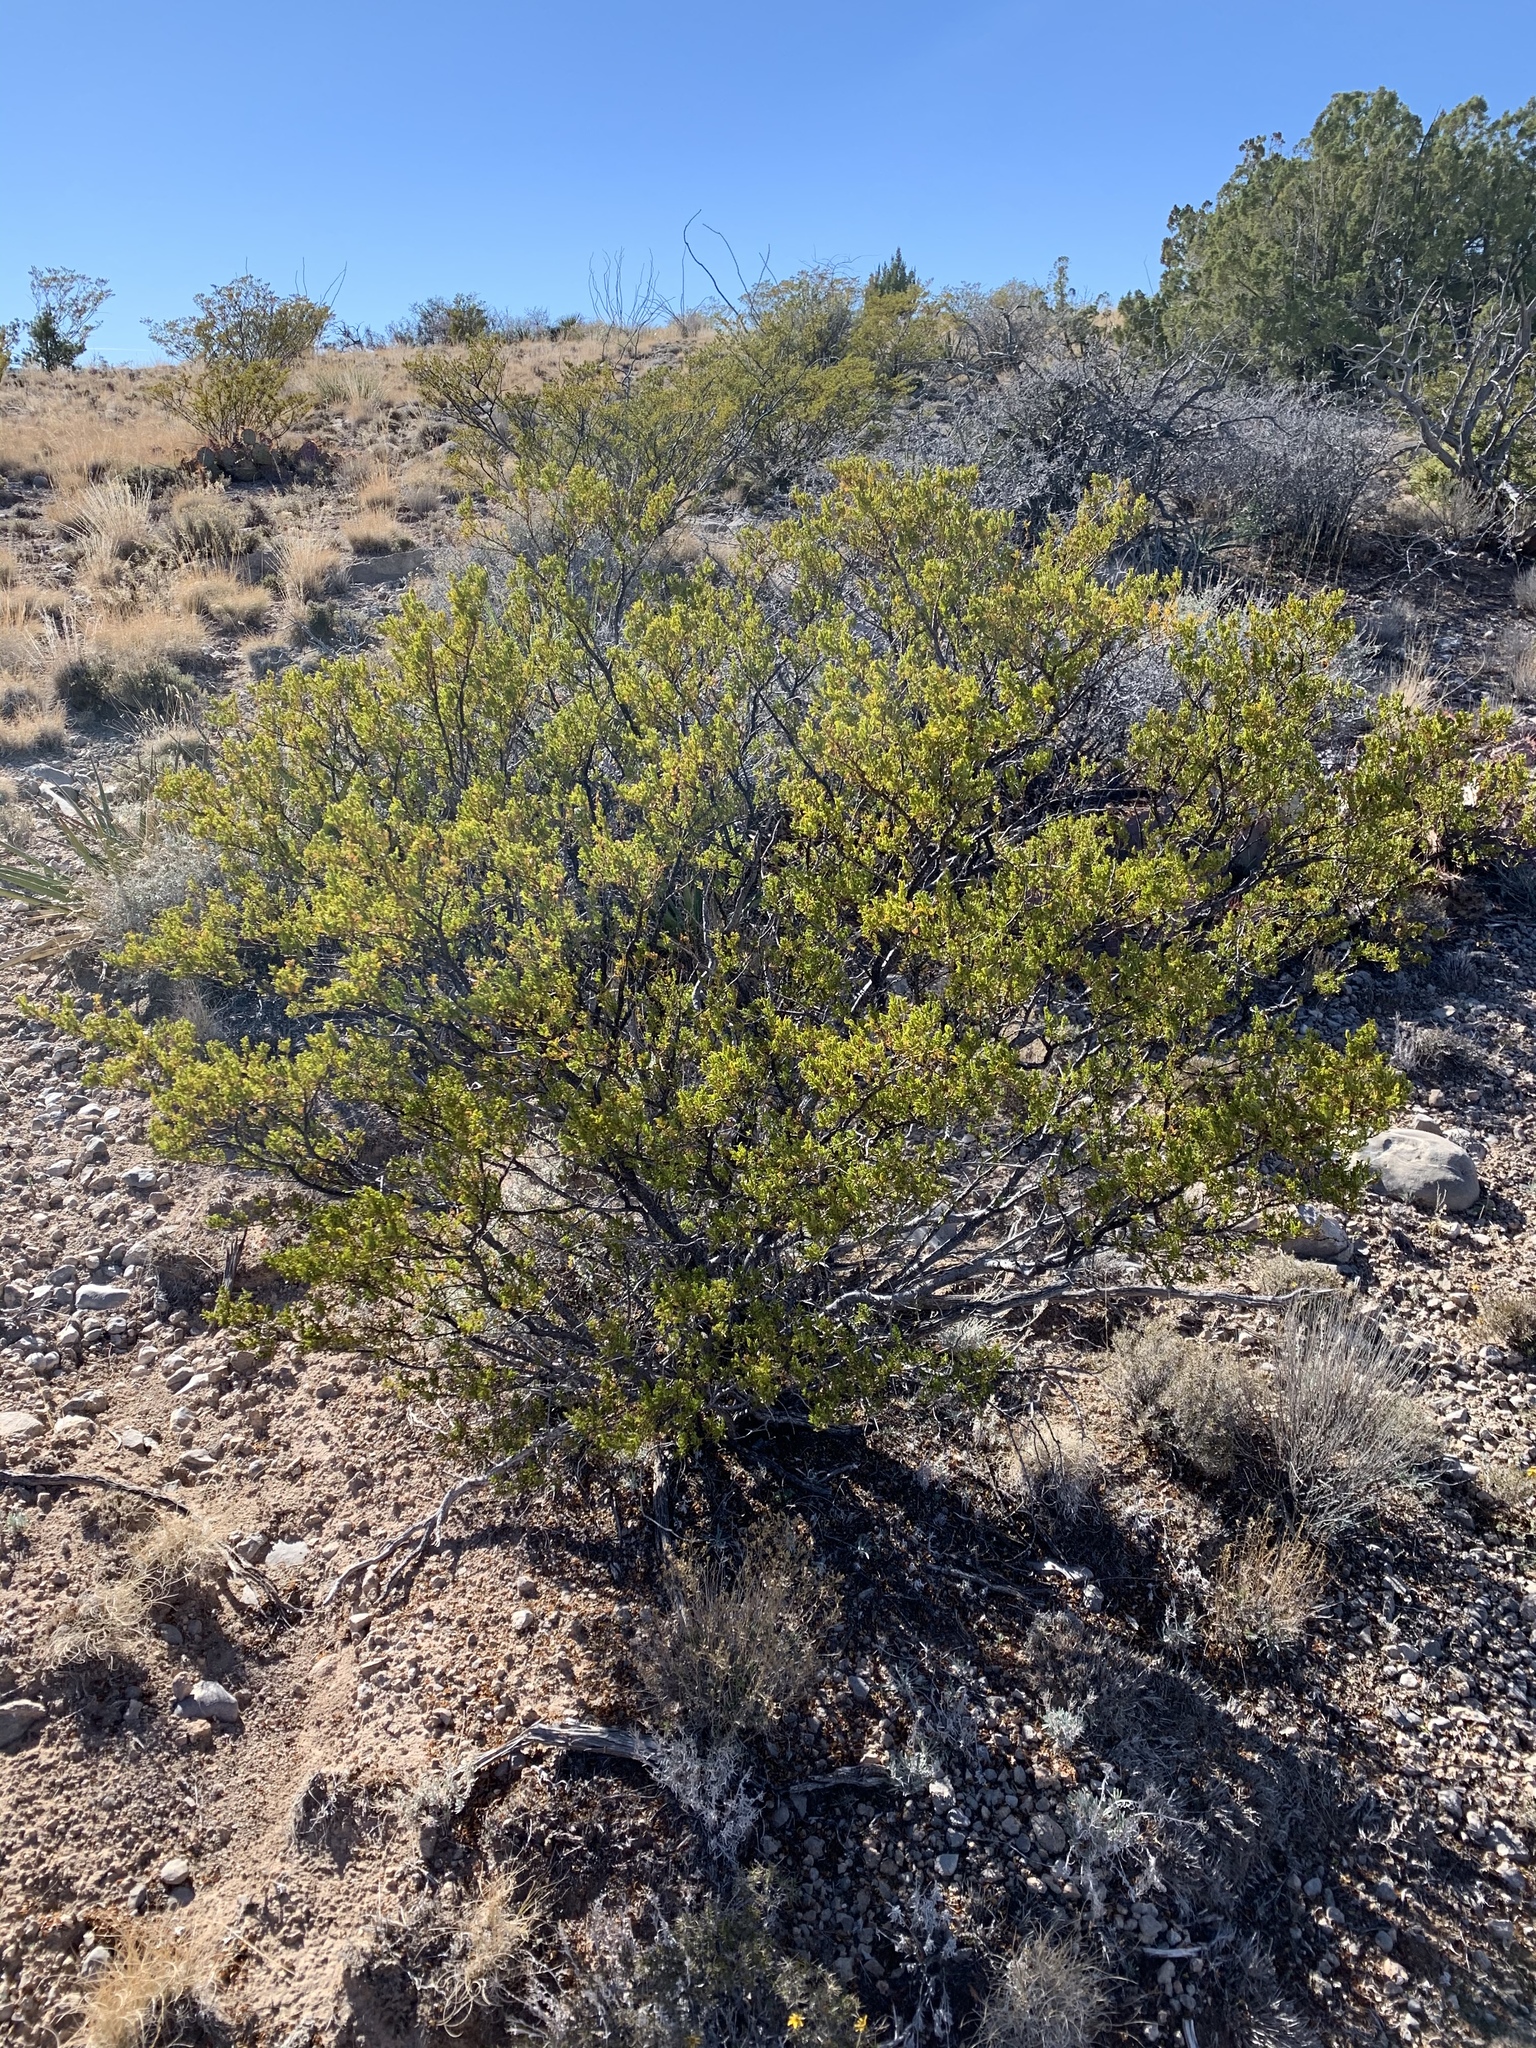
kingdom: Plantae
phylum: Tracheophyta
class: Magnoliopsida
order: Zygophyllales
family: Zygophyllaceae
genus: Larrea
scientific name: Larrea tridentata
